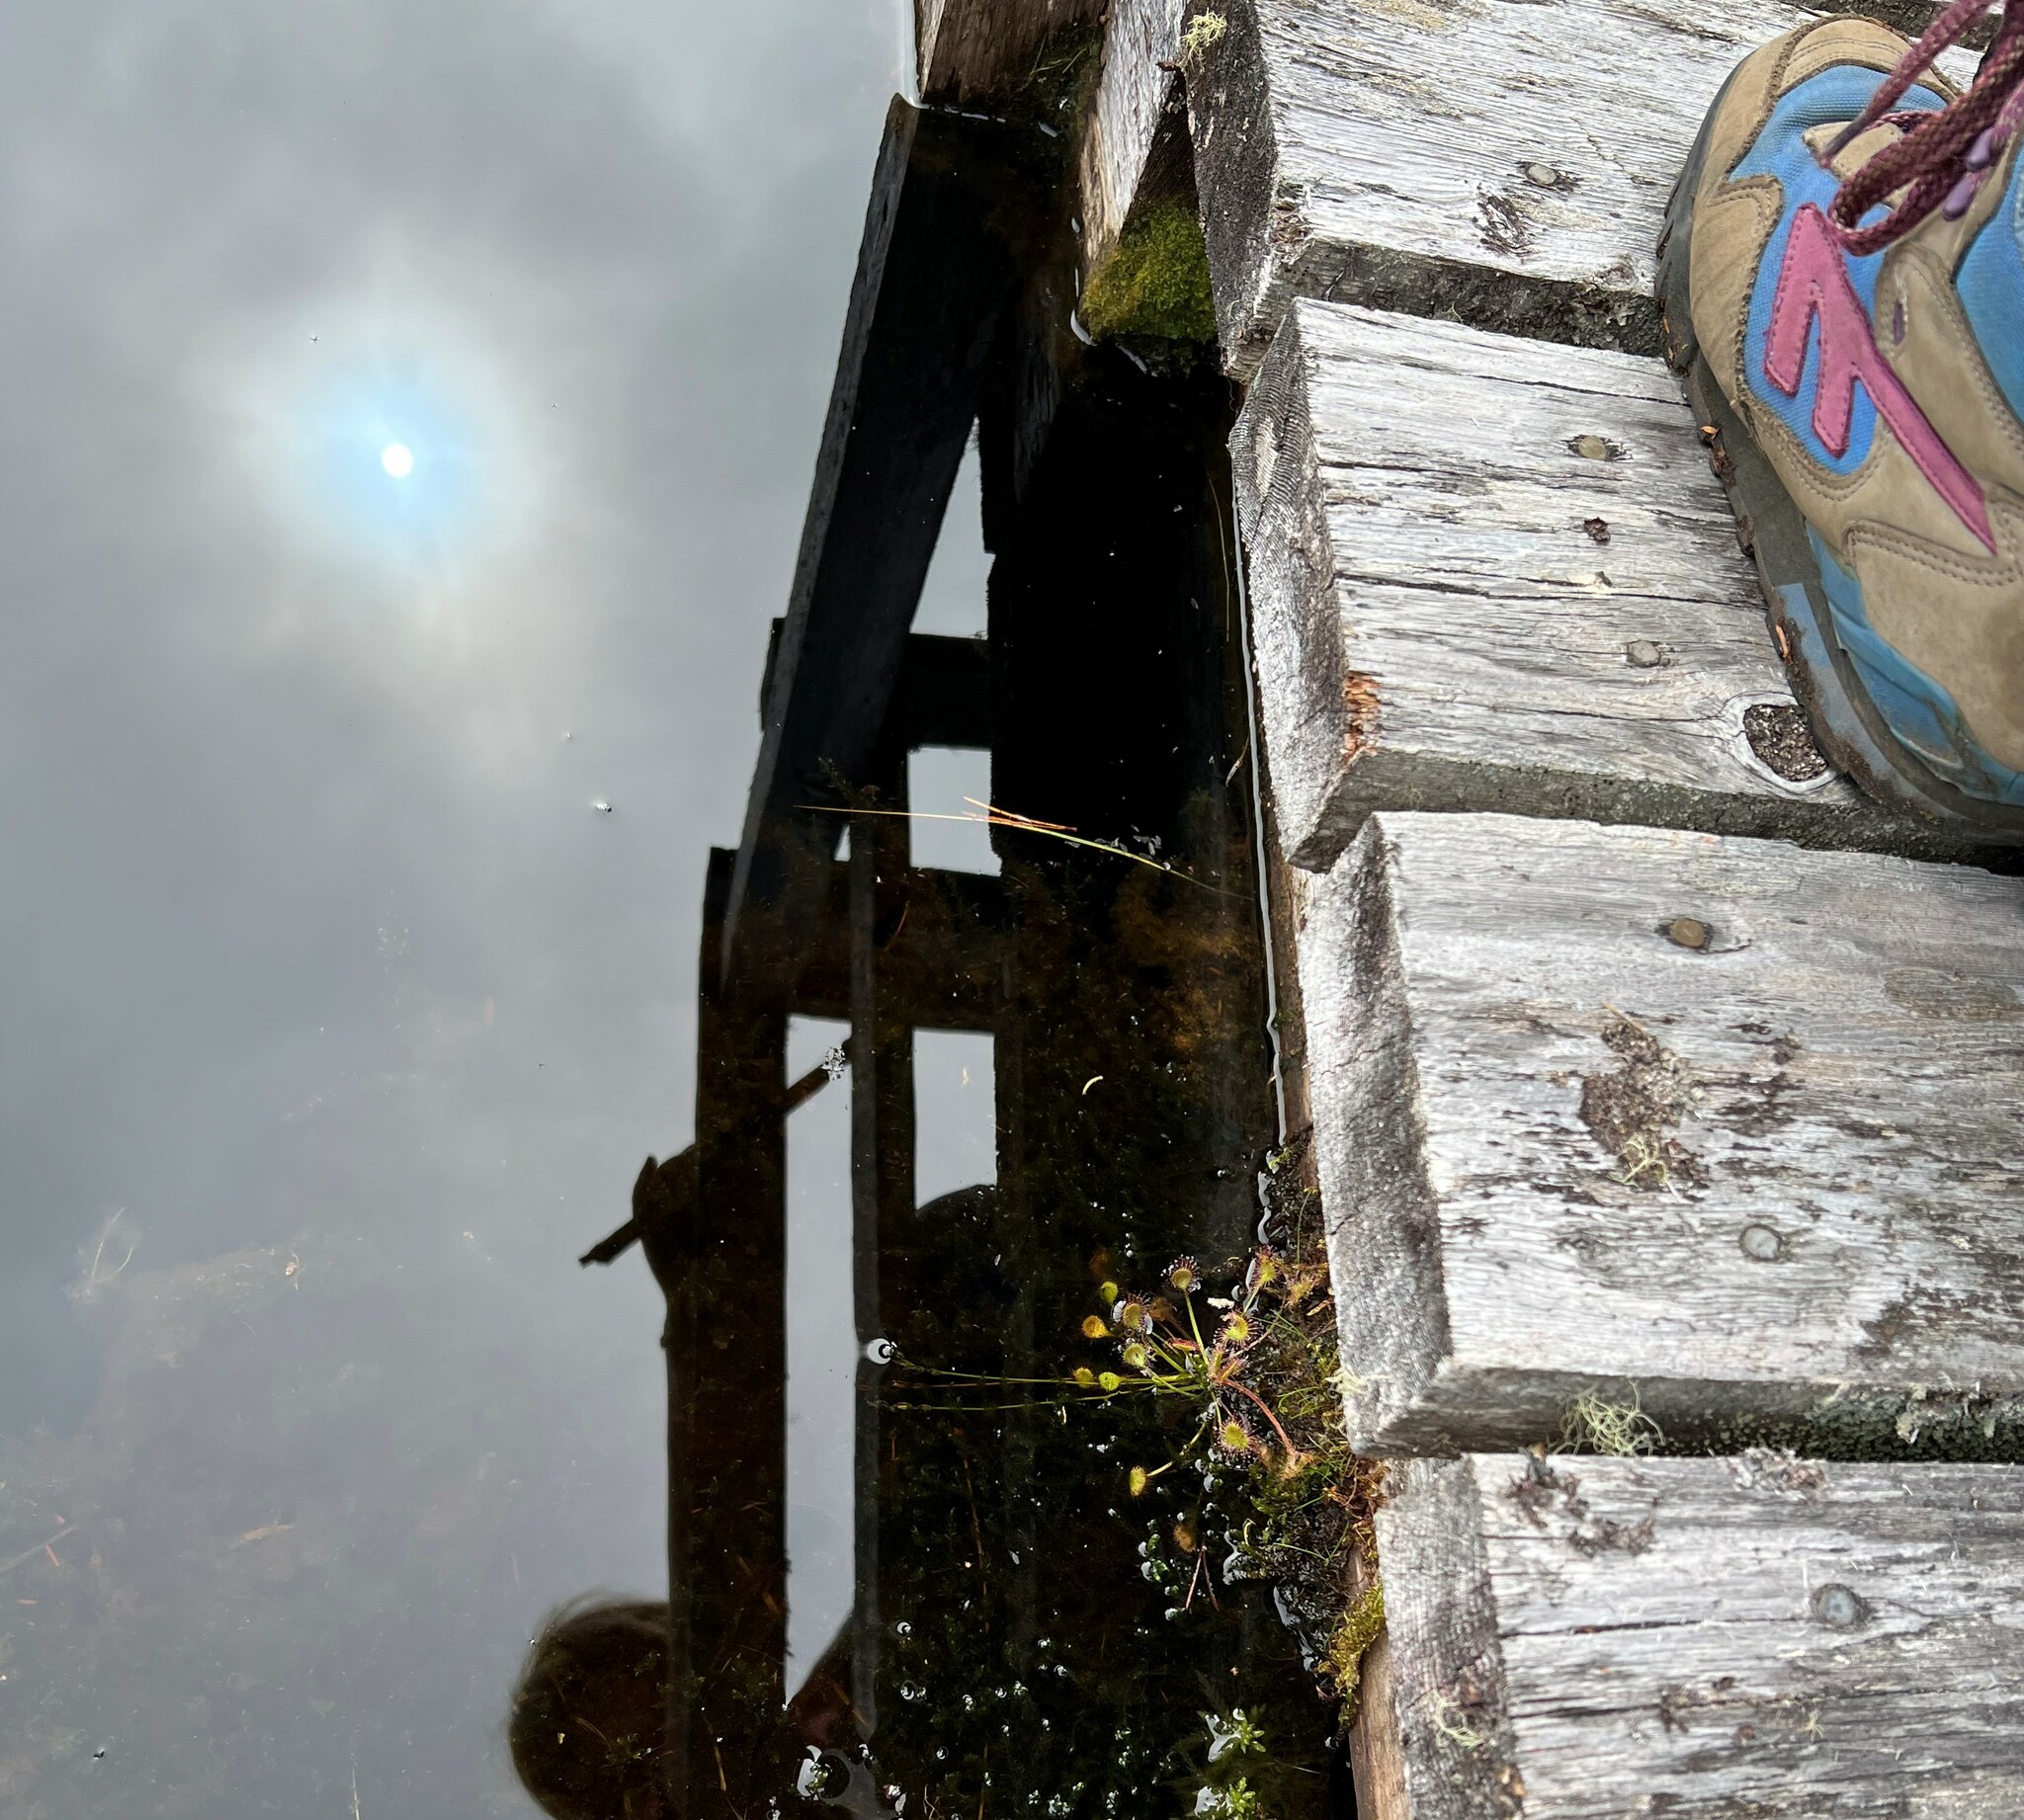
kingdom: Plantae
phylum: Tracheophyta
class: Magnoliopsida
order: Caryophyllales
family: Droseraceae
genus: Drosera
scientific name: Drosera rotundifolia
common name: Round-leaved sundew
